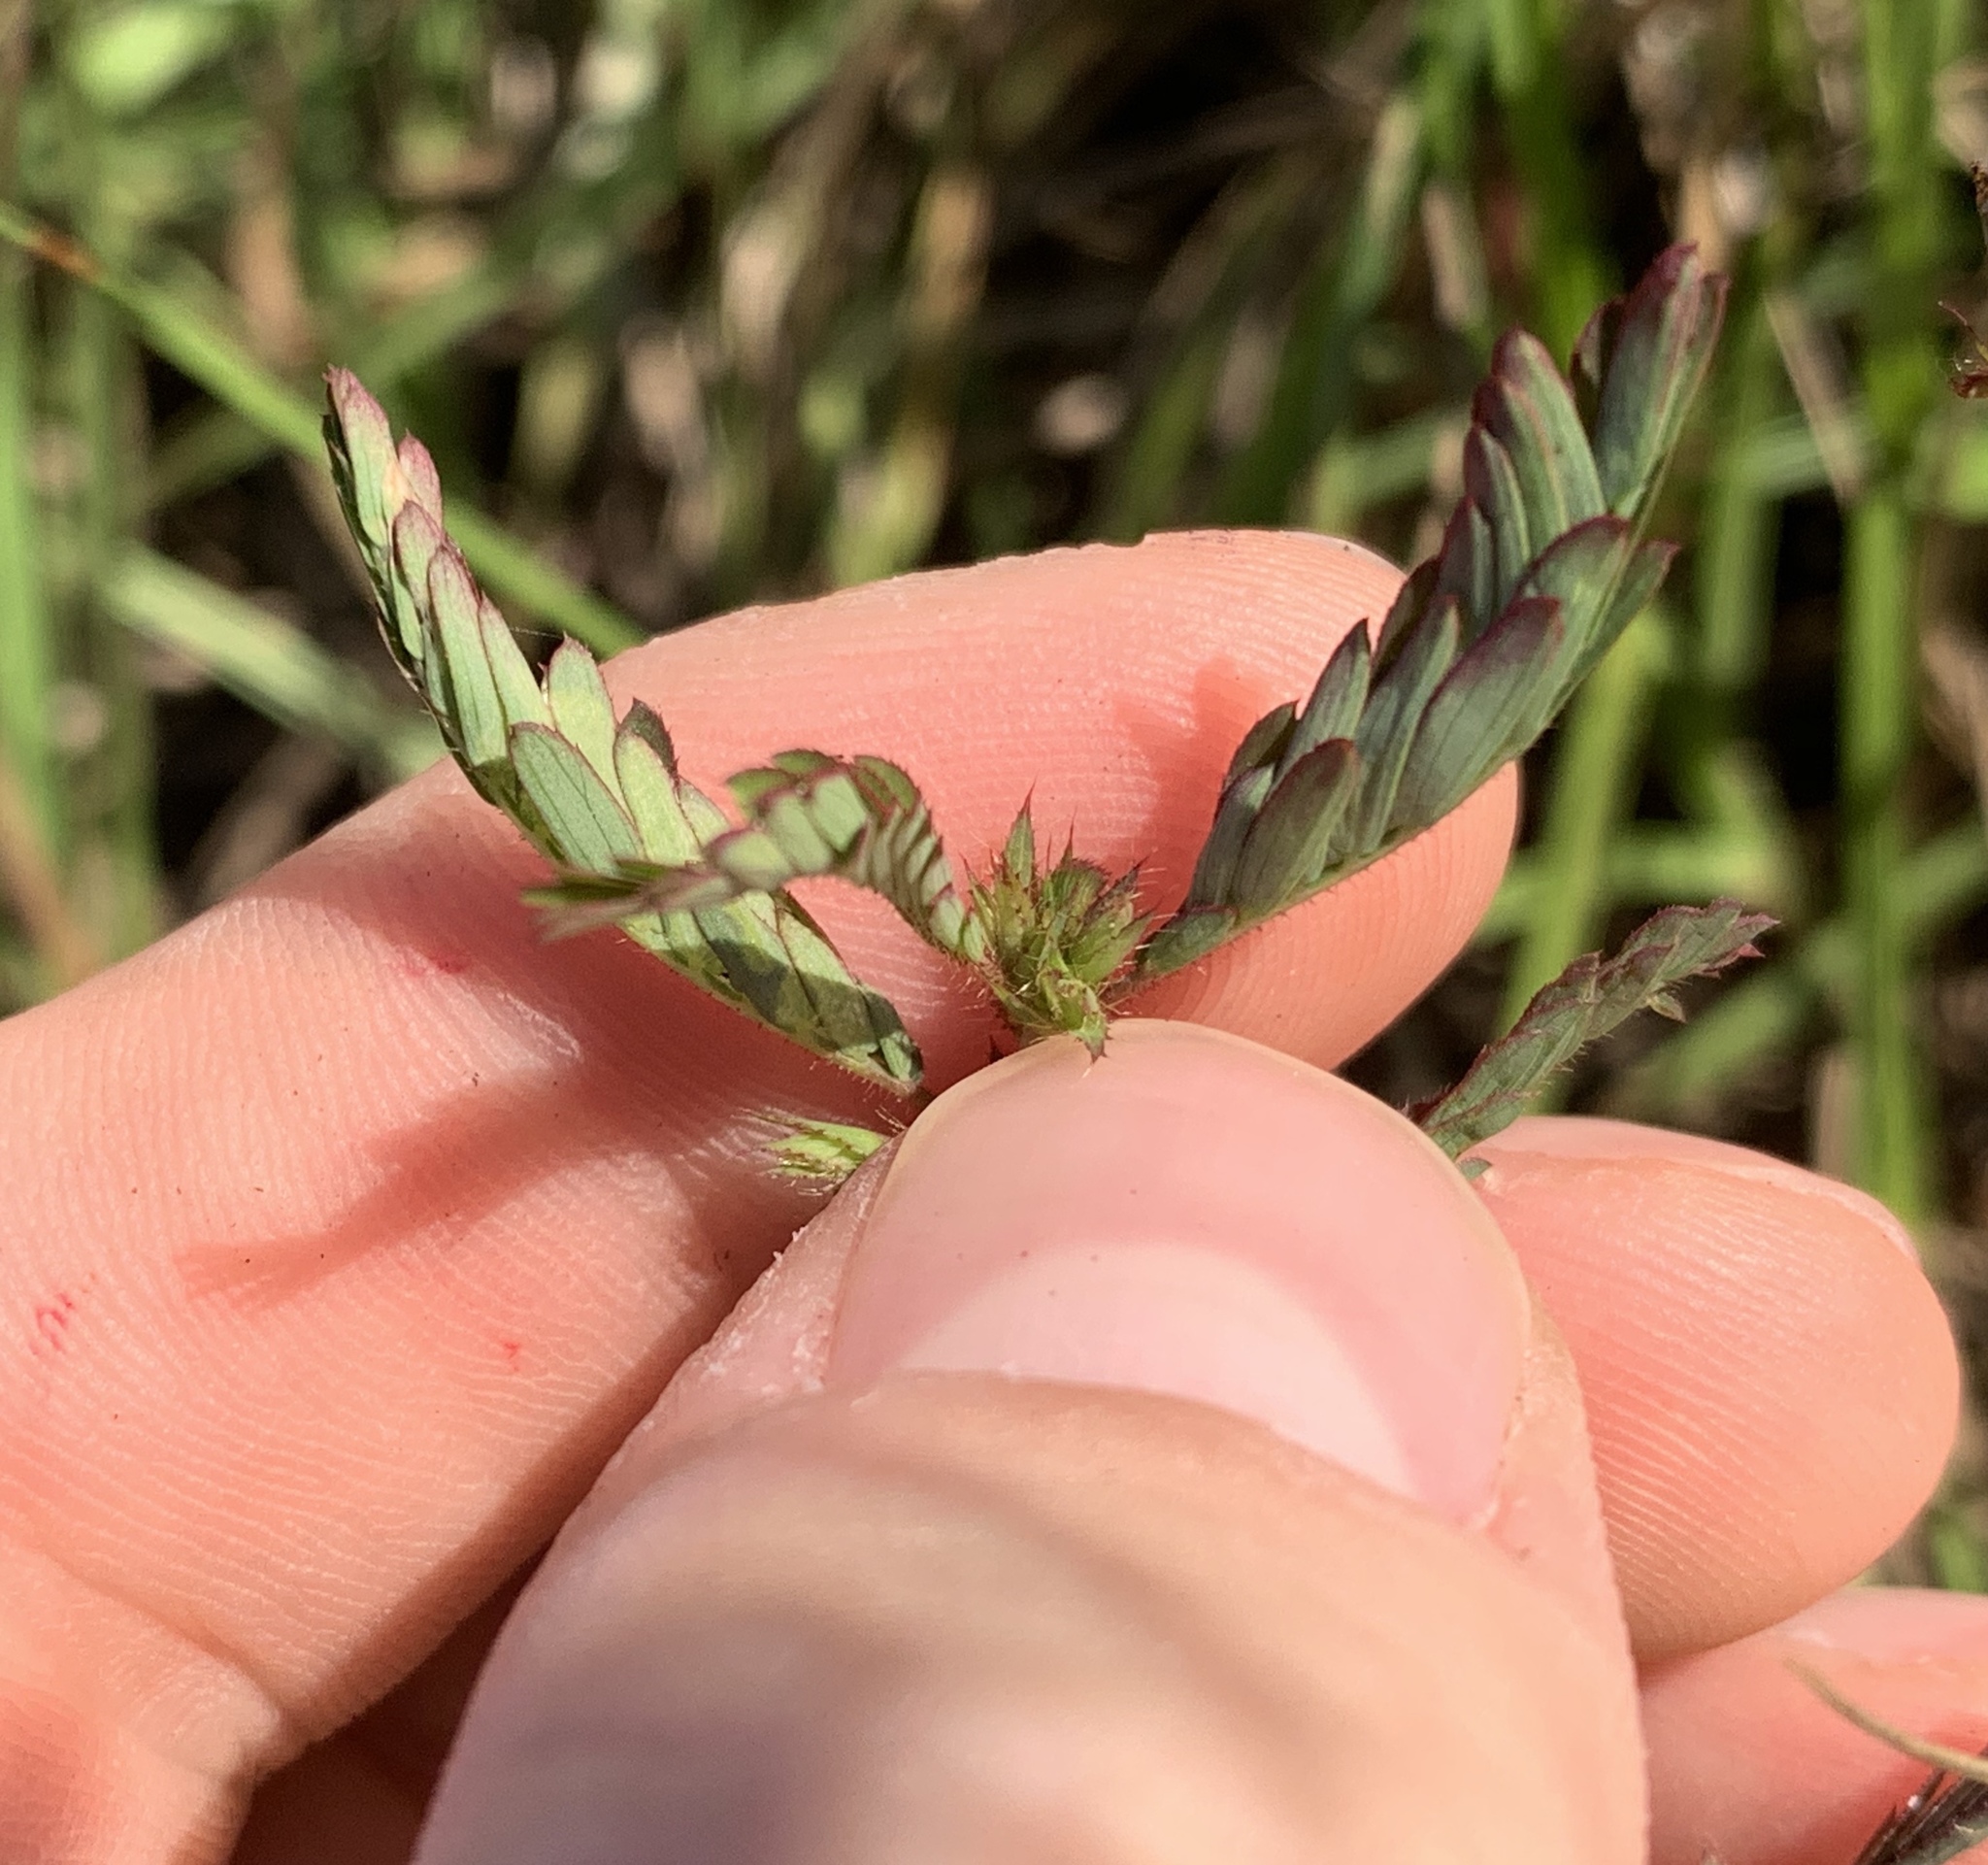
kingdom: Plantae
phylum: Tracheophyta
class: Magnoliopsida
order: Fabales
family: Fabaceae
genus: Aeschynomene
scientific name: Aeschynomene americana
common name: Joint-vetch
